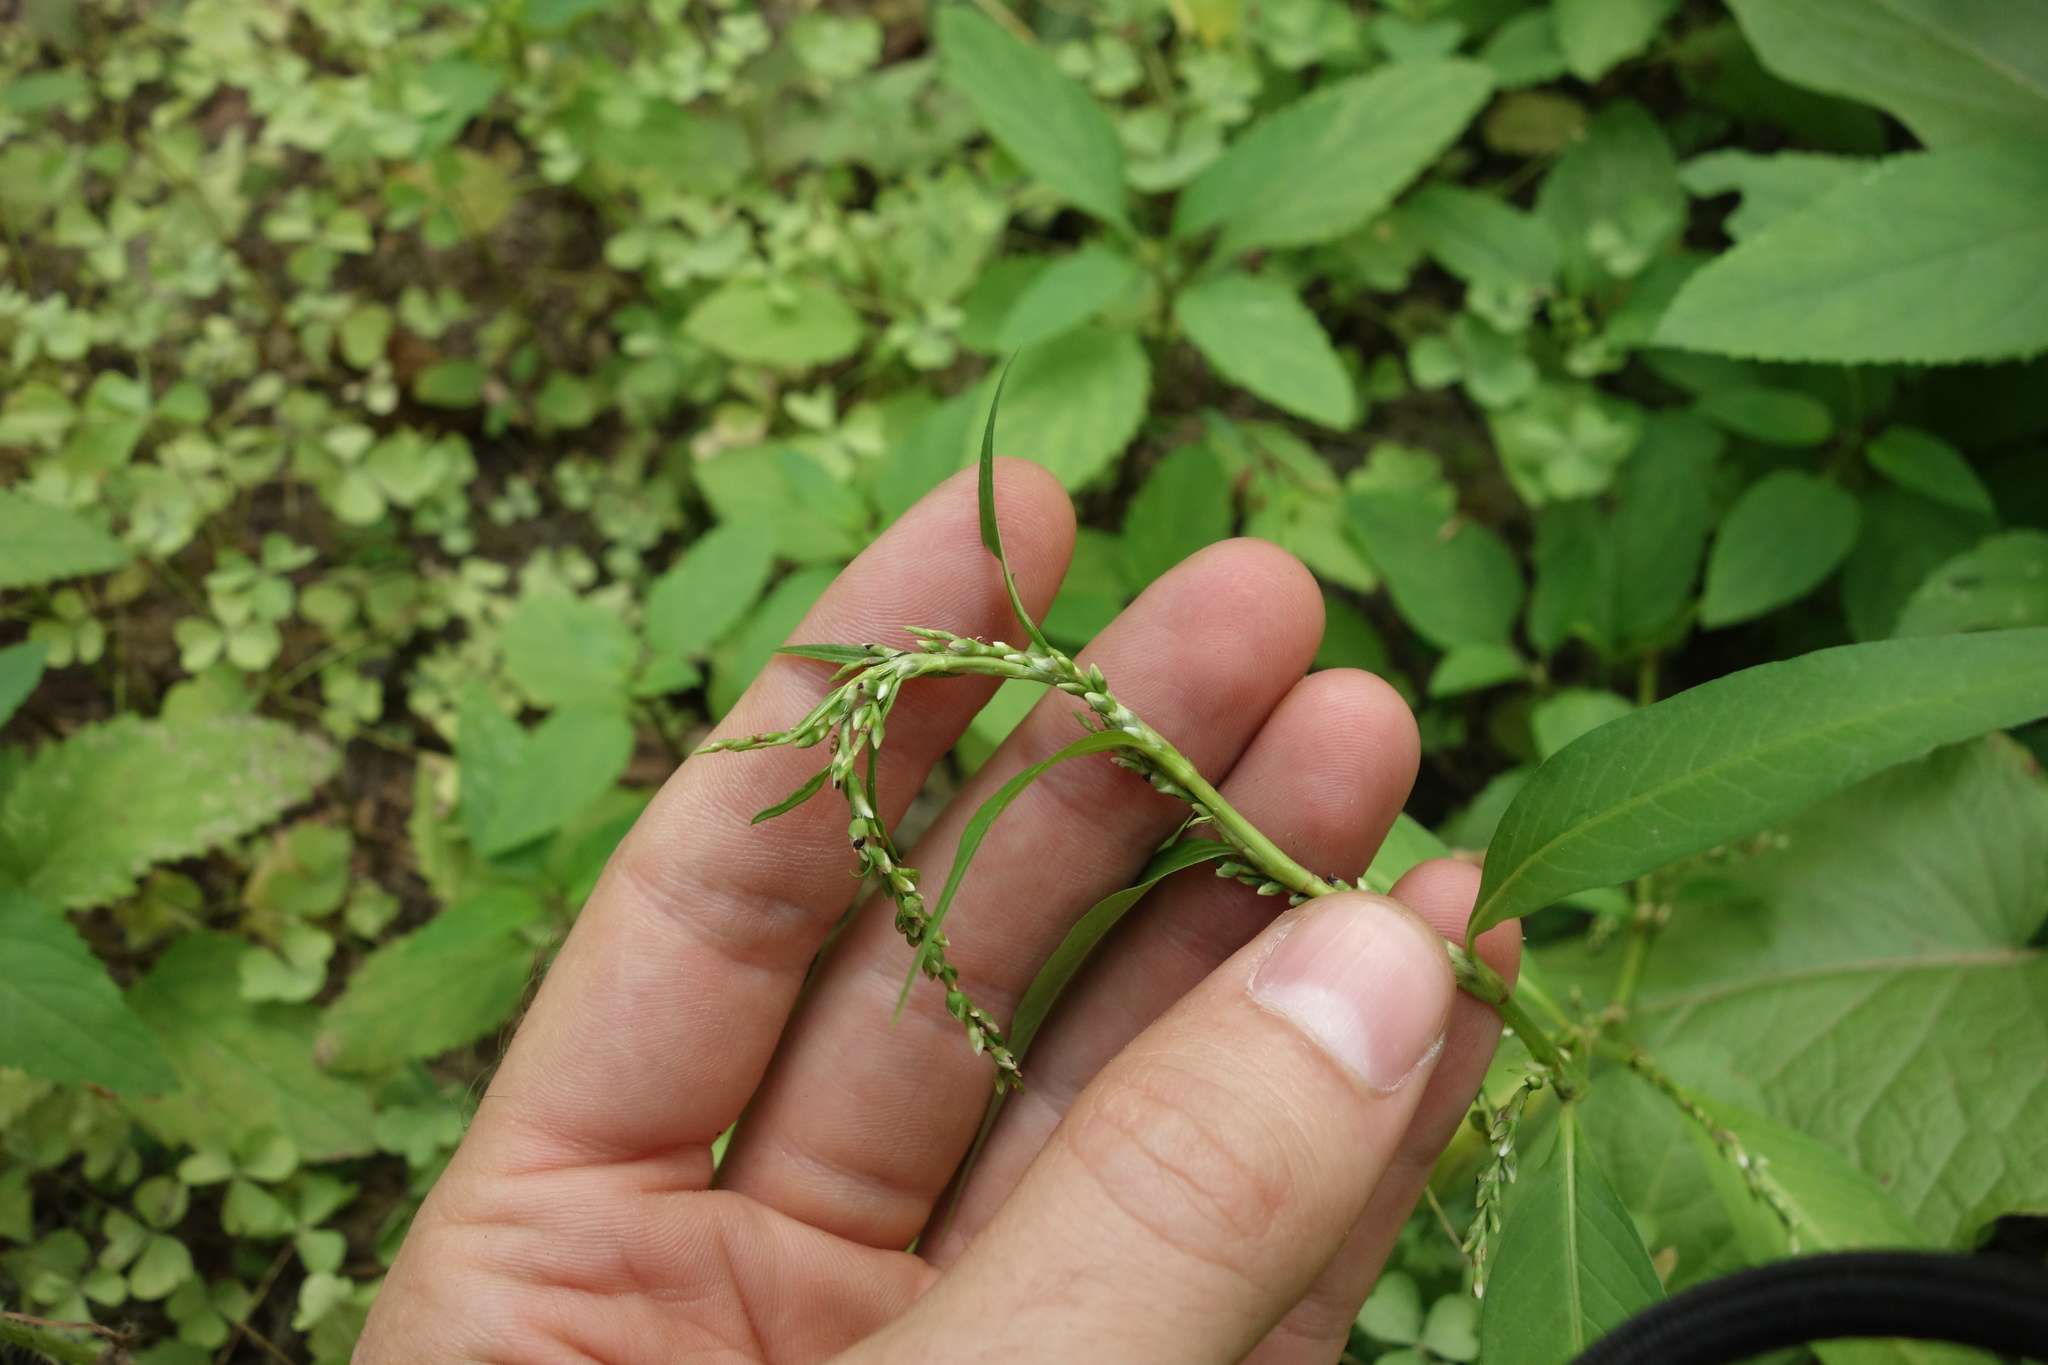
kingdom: Plantae
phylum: Tracheophyta
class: Magnoliopsida
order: Caryophyllales
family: Polygonaceae
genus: Persicaria
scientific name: Persicaria hydropiper
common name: Water-pepper
